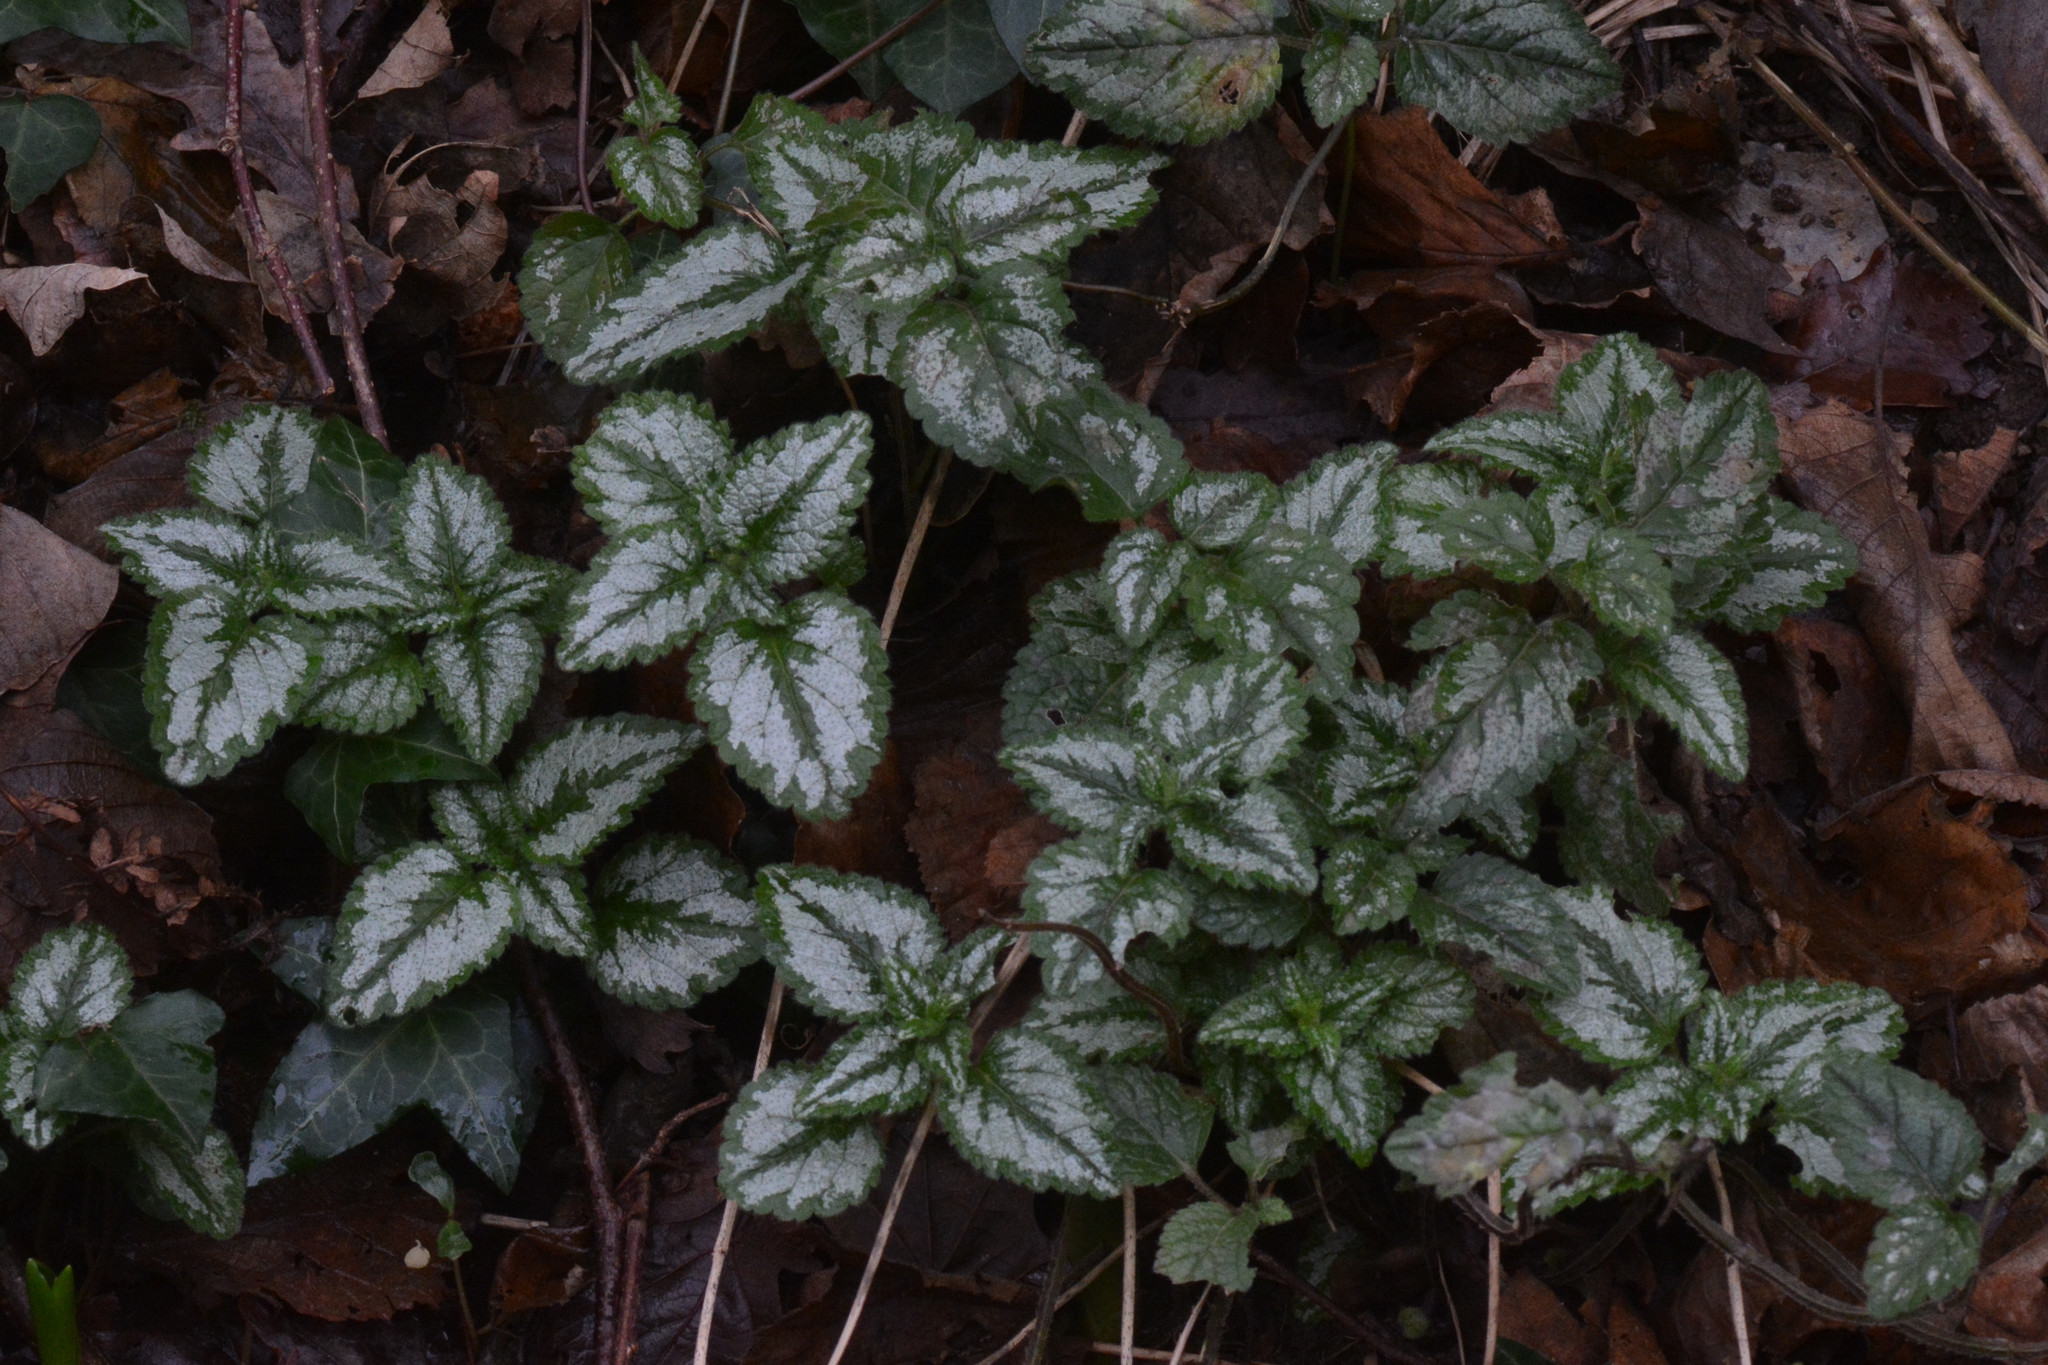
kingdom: Plantae
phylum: Tracheophyta
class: Magnoliopsida
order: Lamiales
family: Lamiaceae
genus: Lamium
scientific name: Lamium galeobdolon
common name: Yellow archangel
